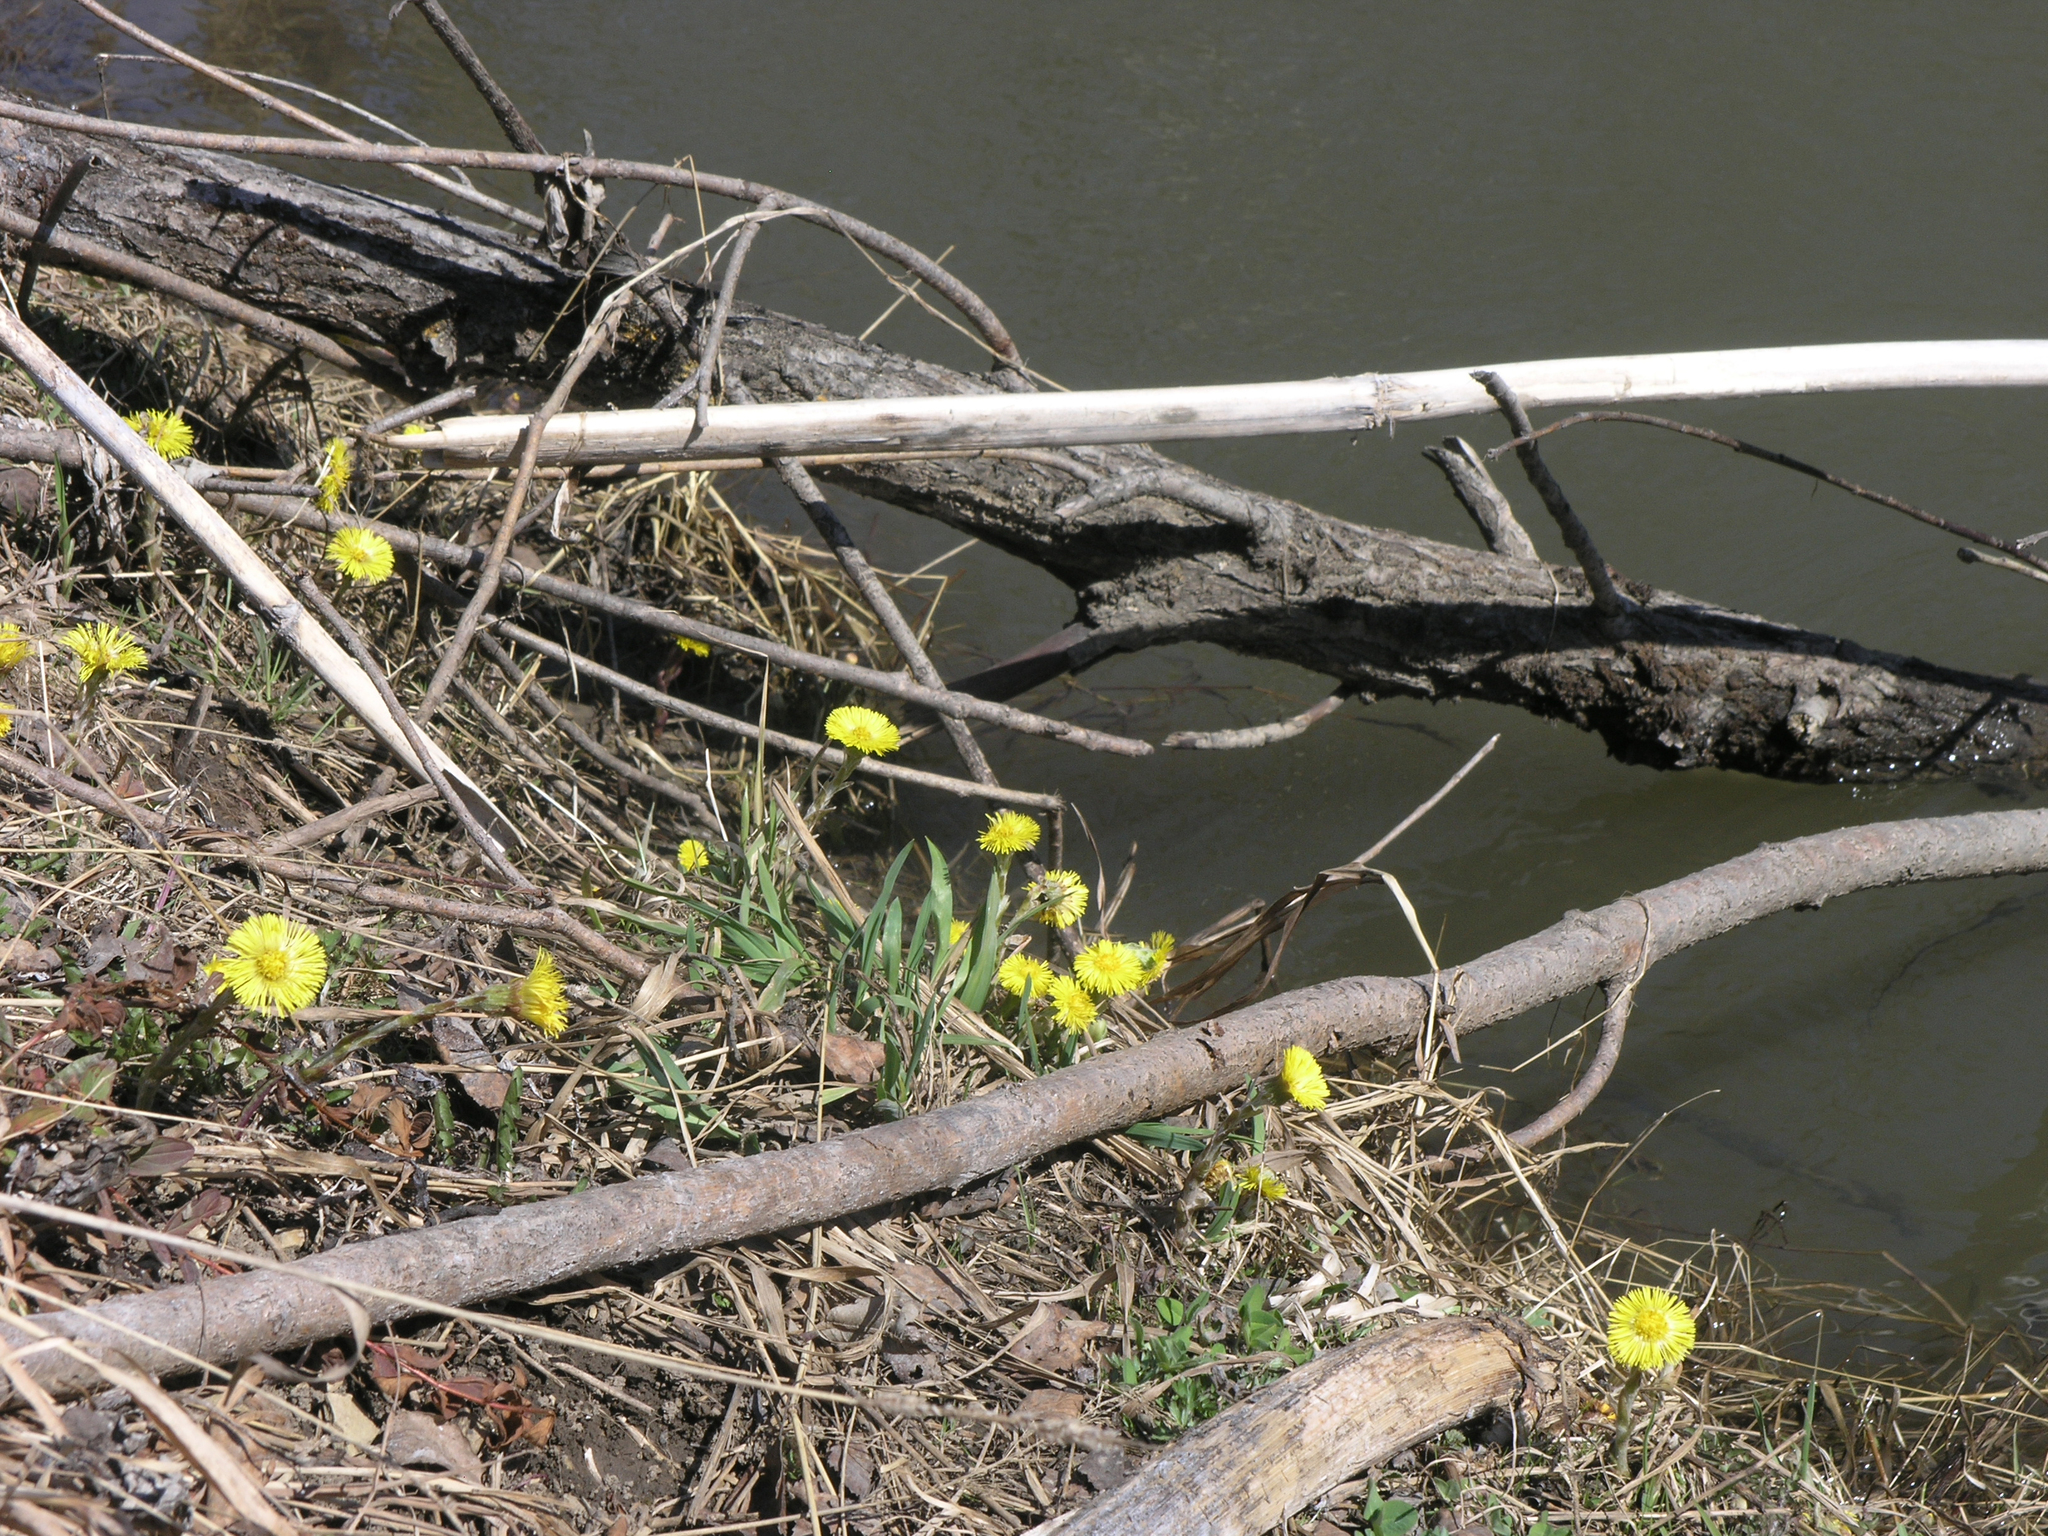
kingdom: Plantae
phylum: Tracheophyta
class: Magnoliopsida
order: Asterales
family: Asteraceae
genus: Tussilago
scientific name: Tussilago farfara
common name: Coltsfoot
